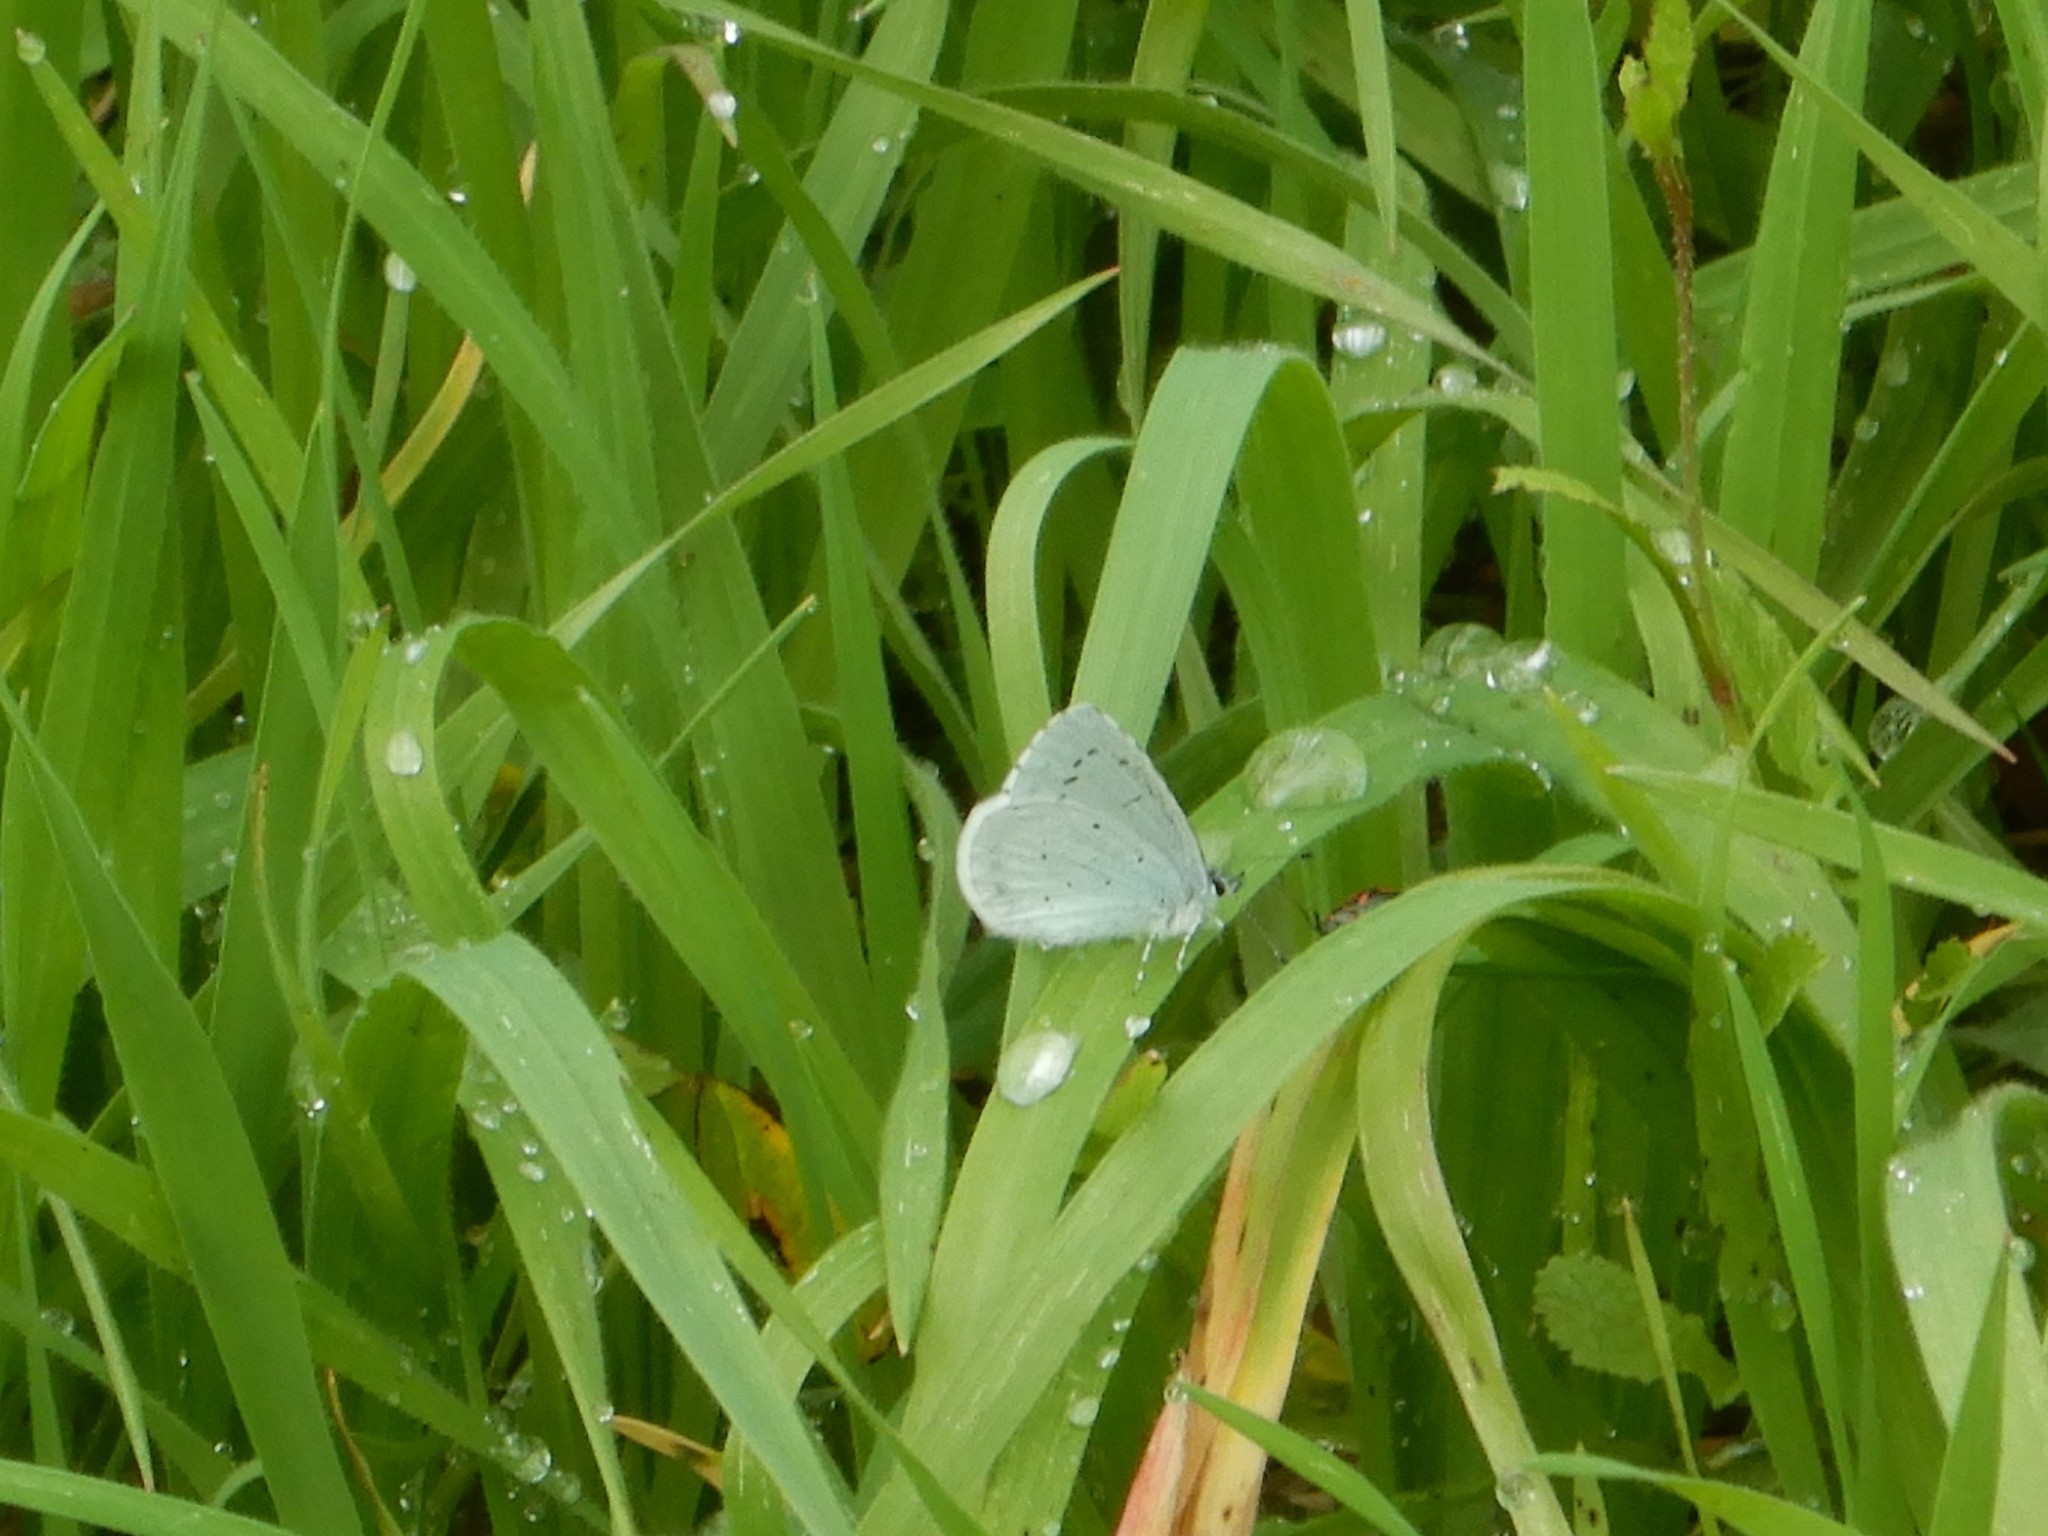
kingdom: Animalia
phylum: Arthropoda
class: Insecta
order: Lepidoptera
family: Lycaenidae
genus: Celastrina
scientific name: Celastrina argiolus
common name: Holly blue
